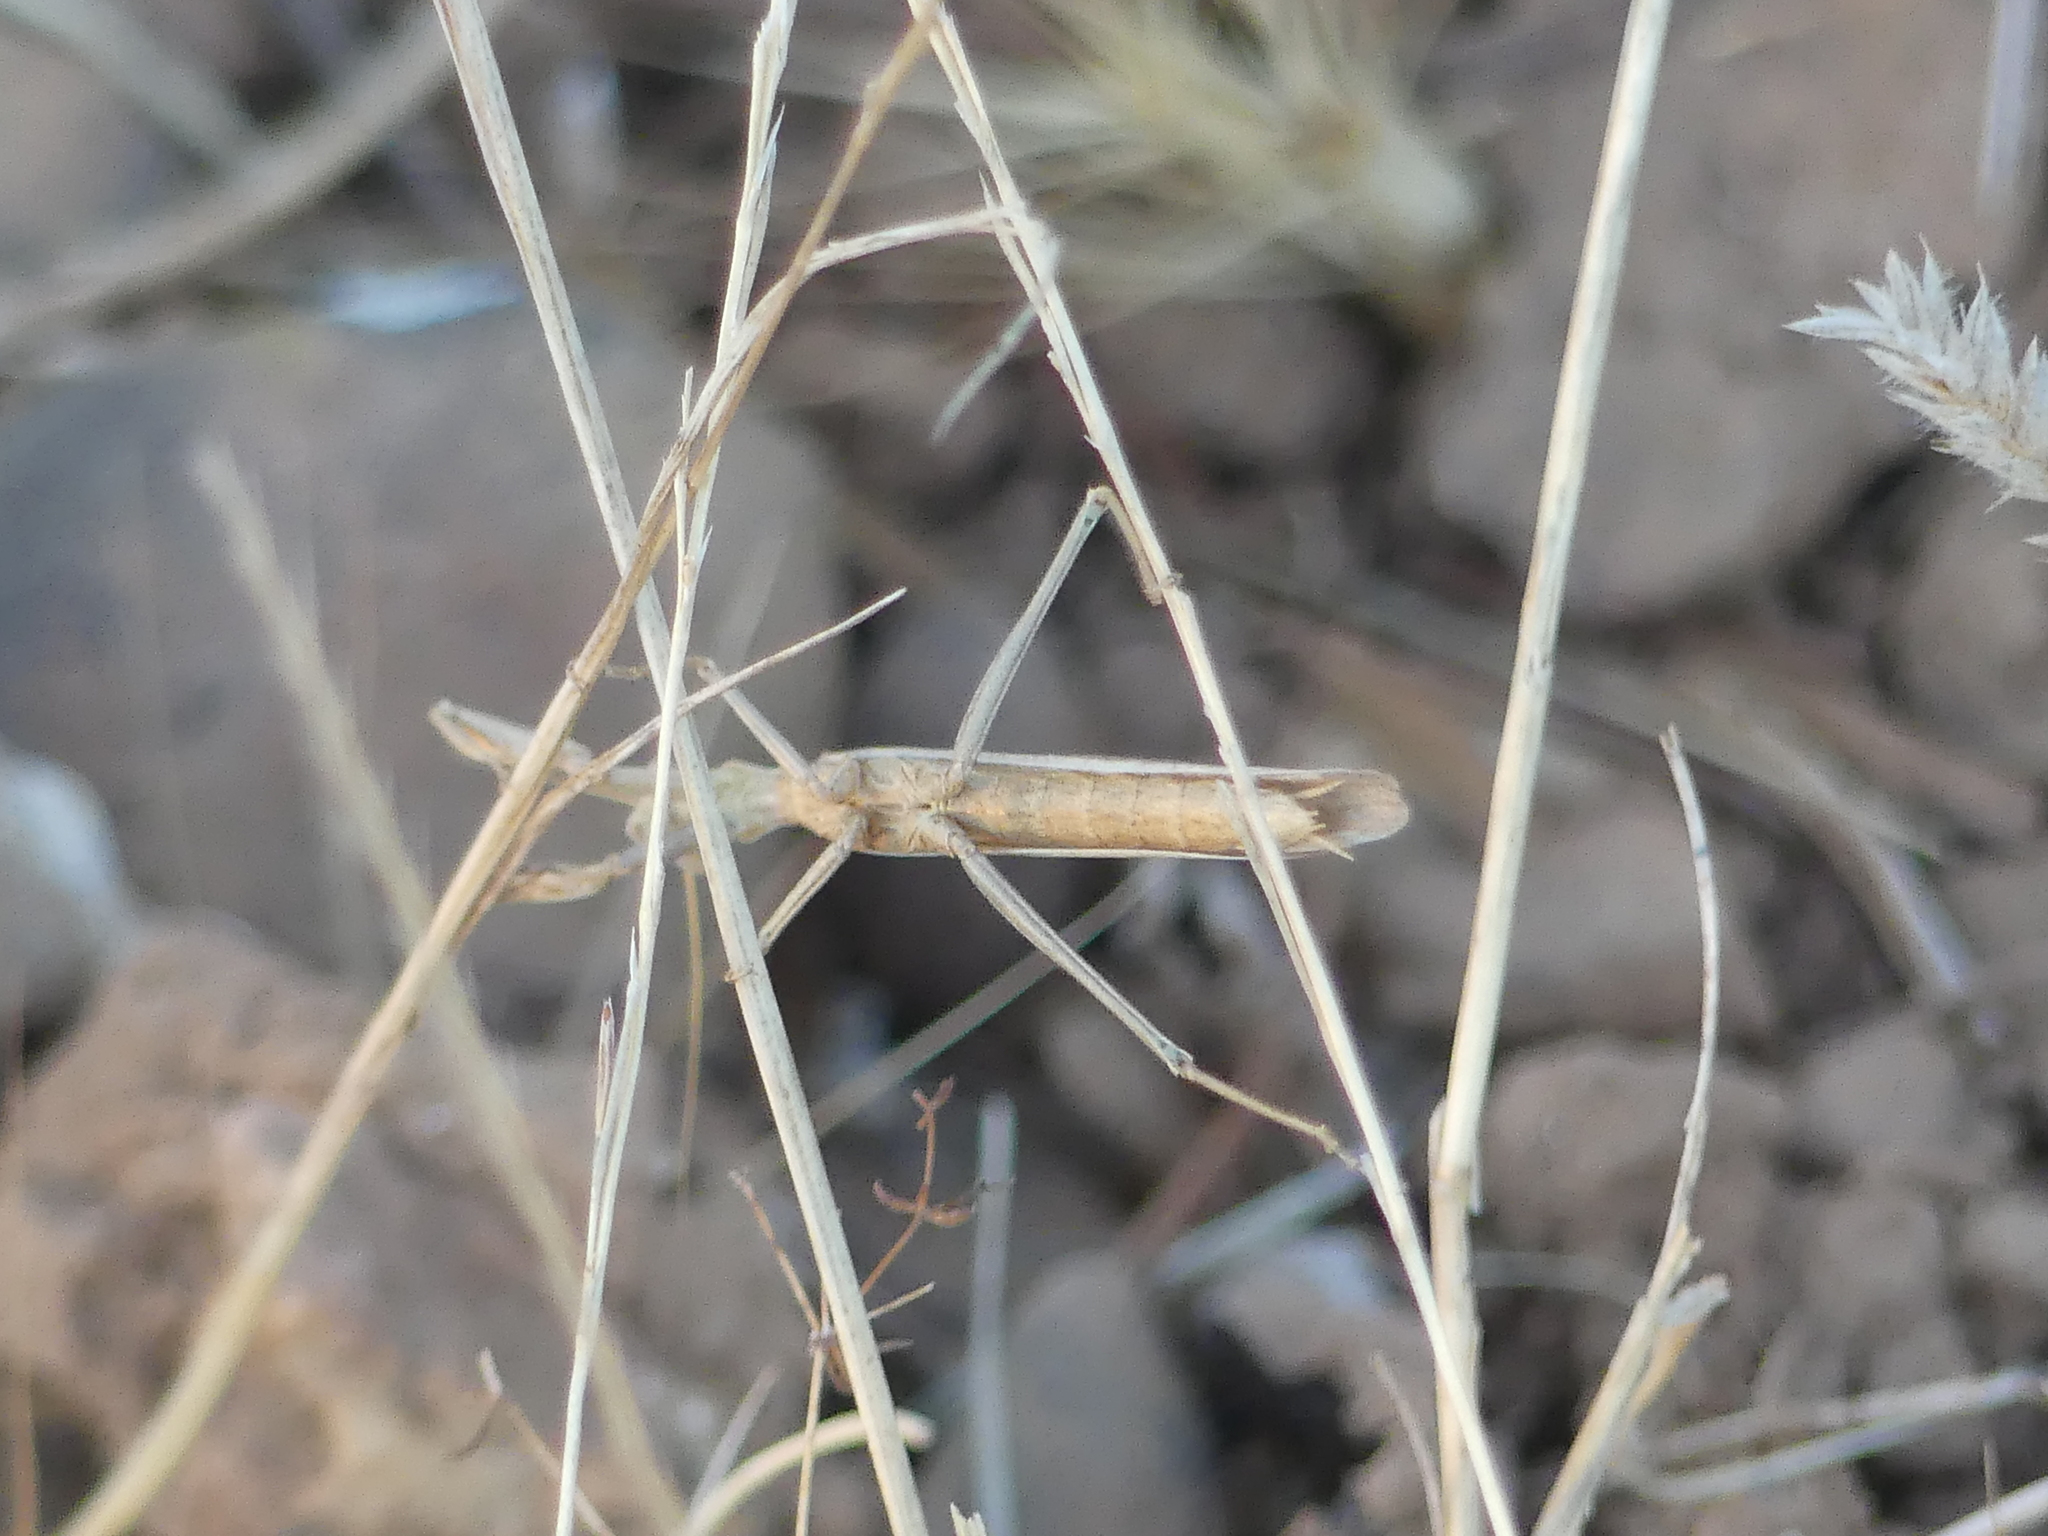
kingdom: Animalia
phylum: Arthropoda
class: Insecta
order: Mantodea
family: Amelidae
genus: Ameles
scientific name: Ameles decolor
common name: Dwarf mantis
